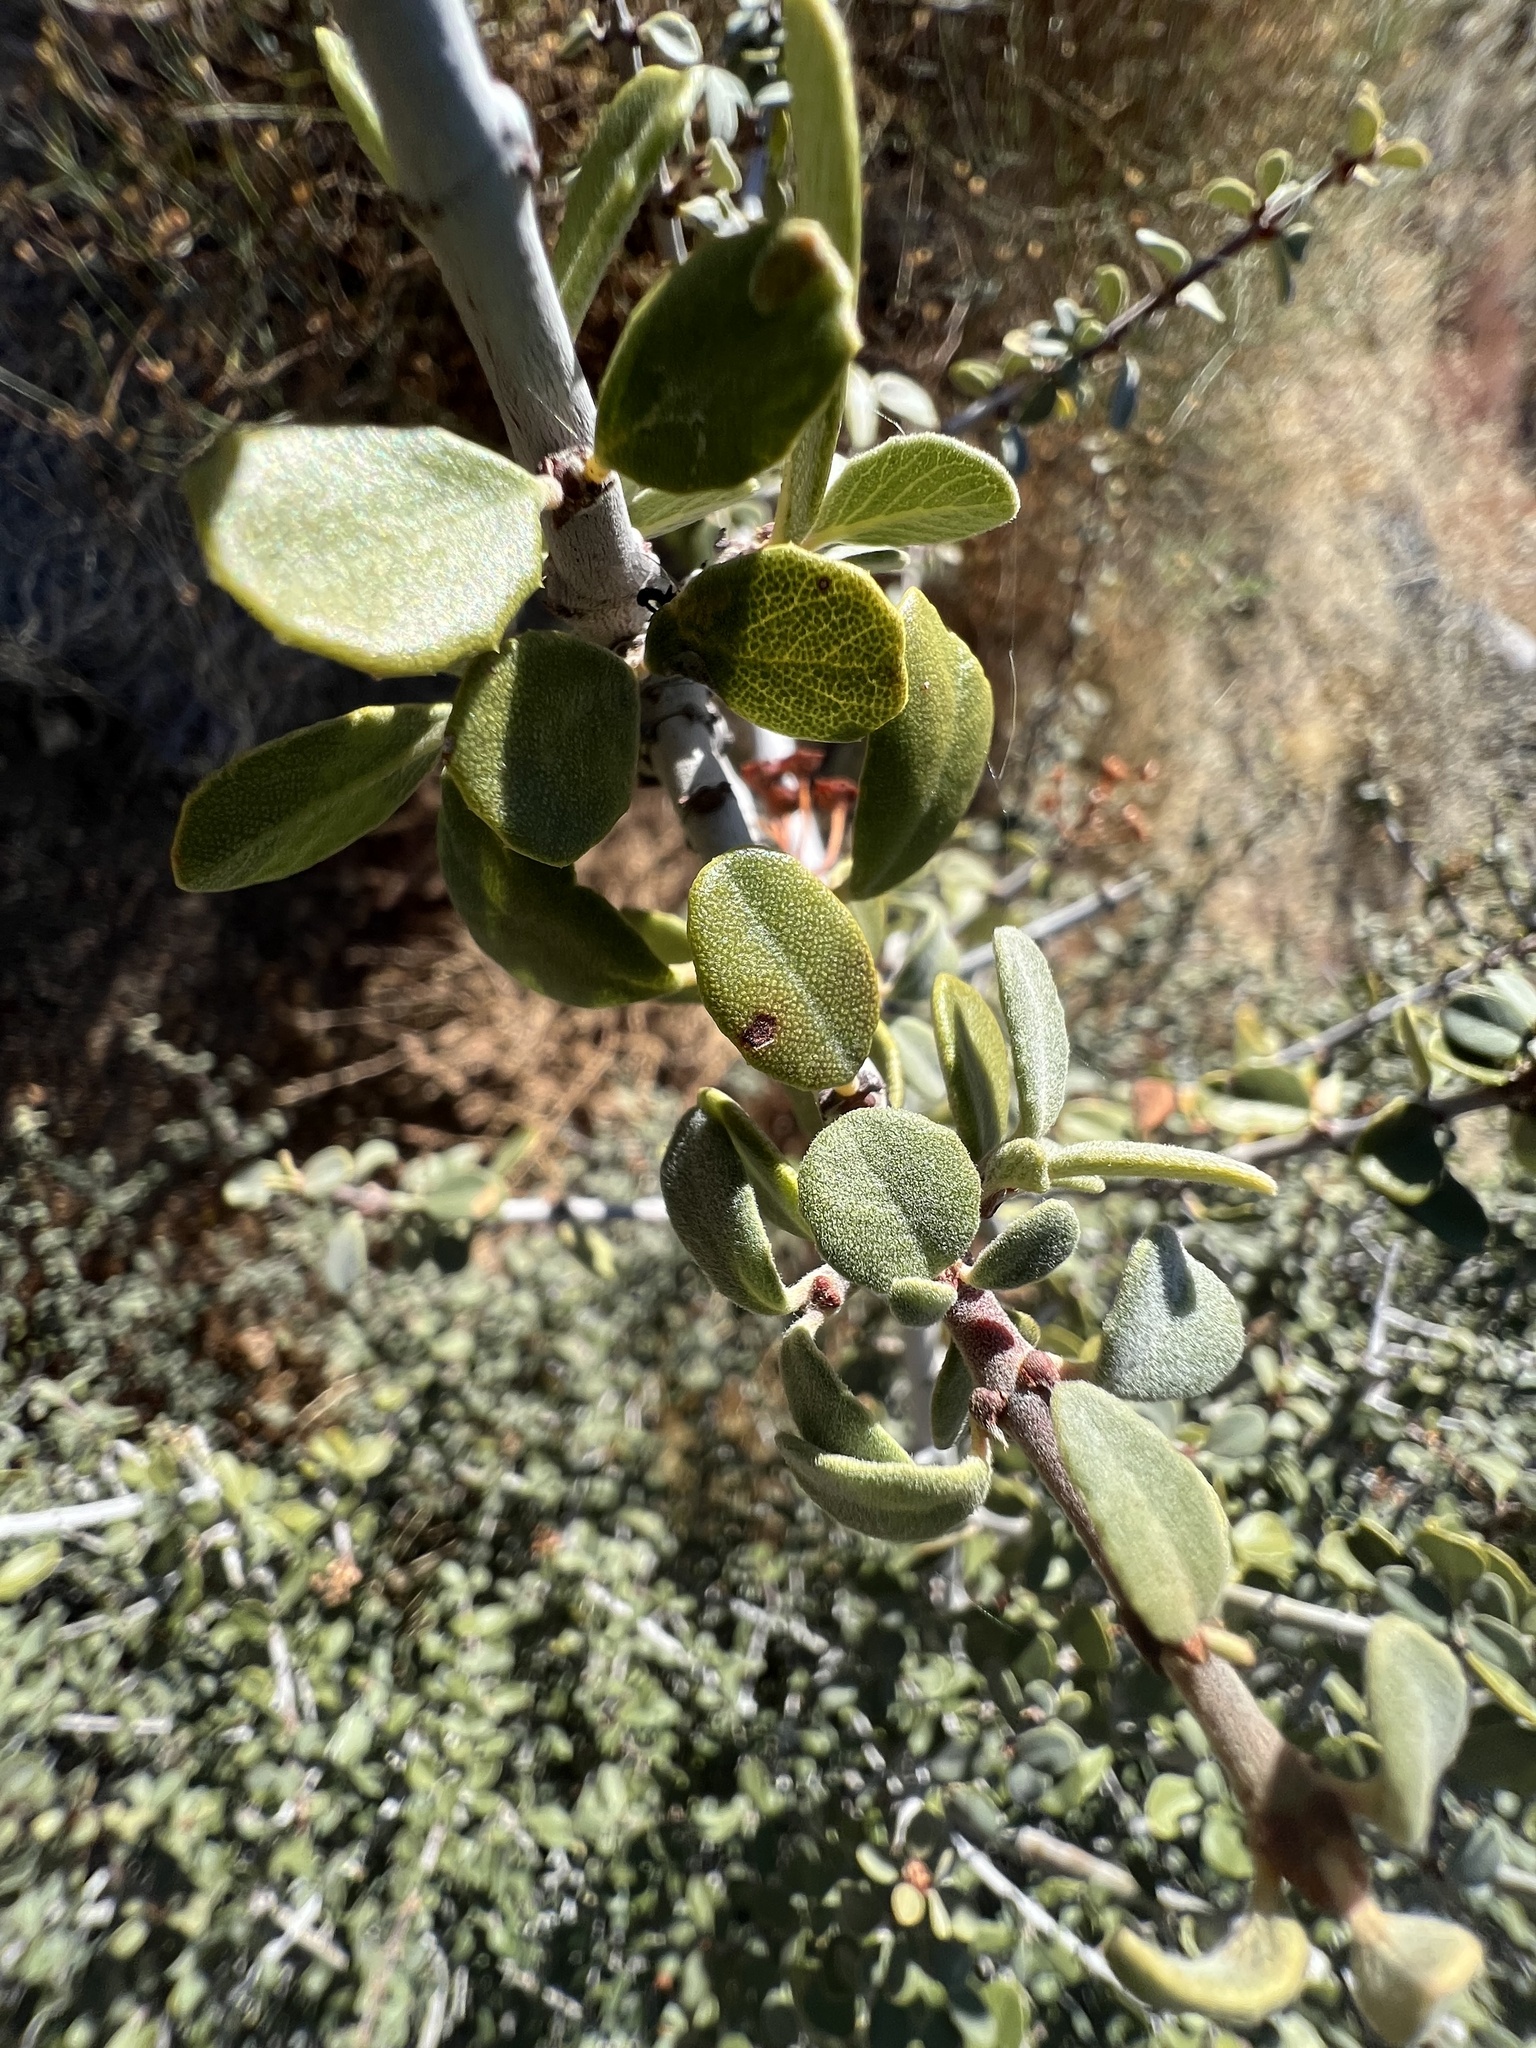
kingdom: Plantae
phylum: Tracheophyta
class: Magnoliopsida
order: Rosales
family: Rhamnaceae
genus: Ceanothus
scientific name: Ceanothus pauciflorus
